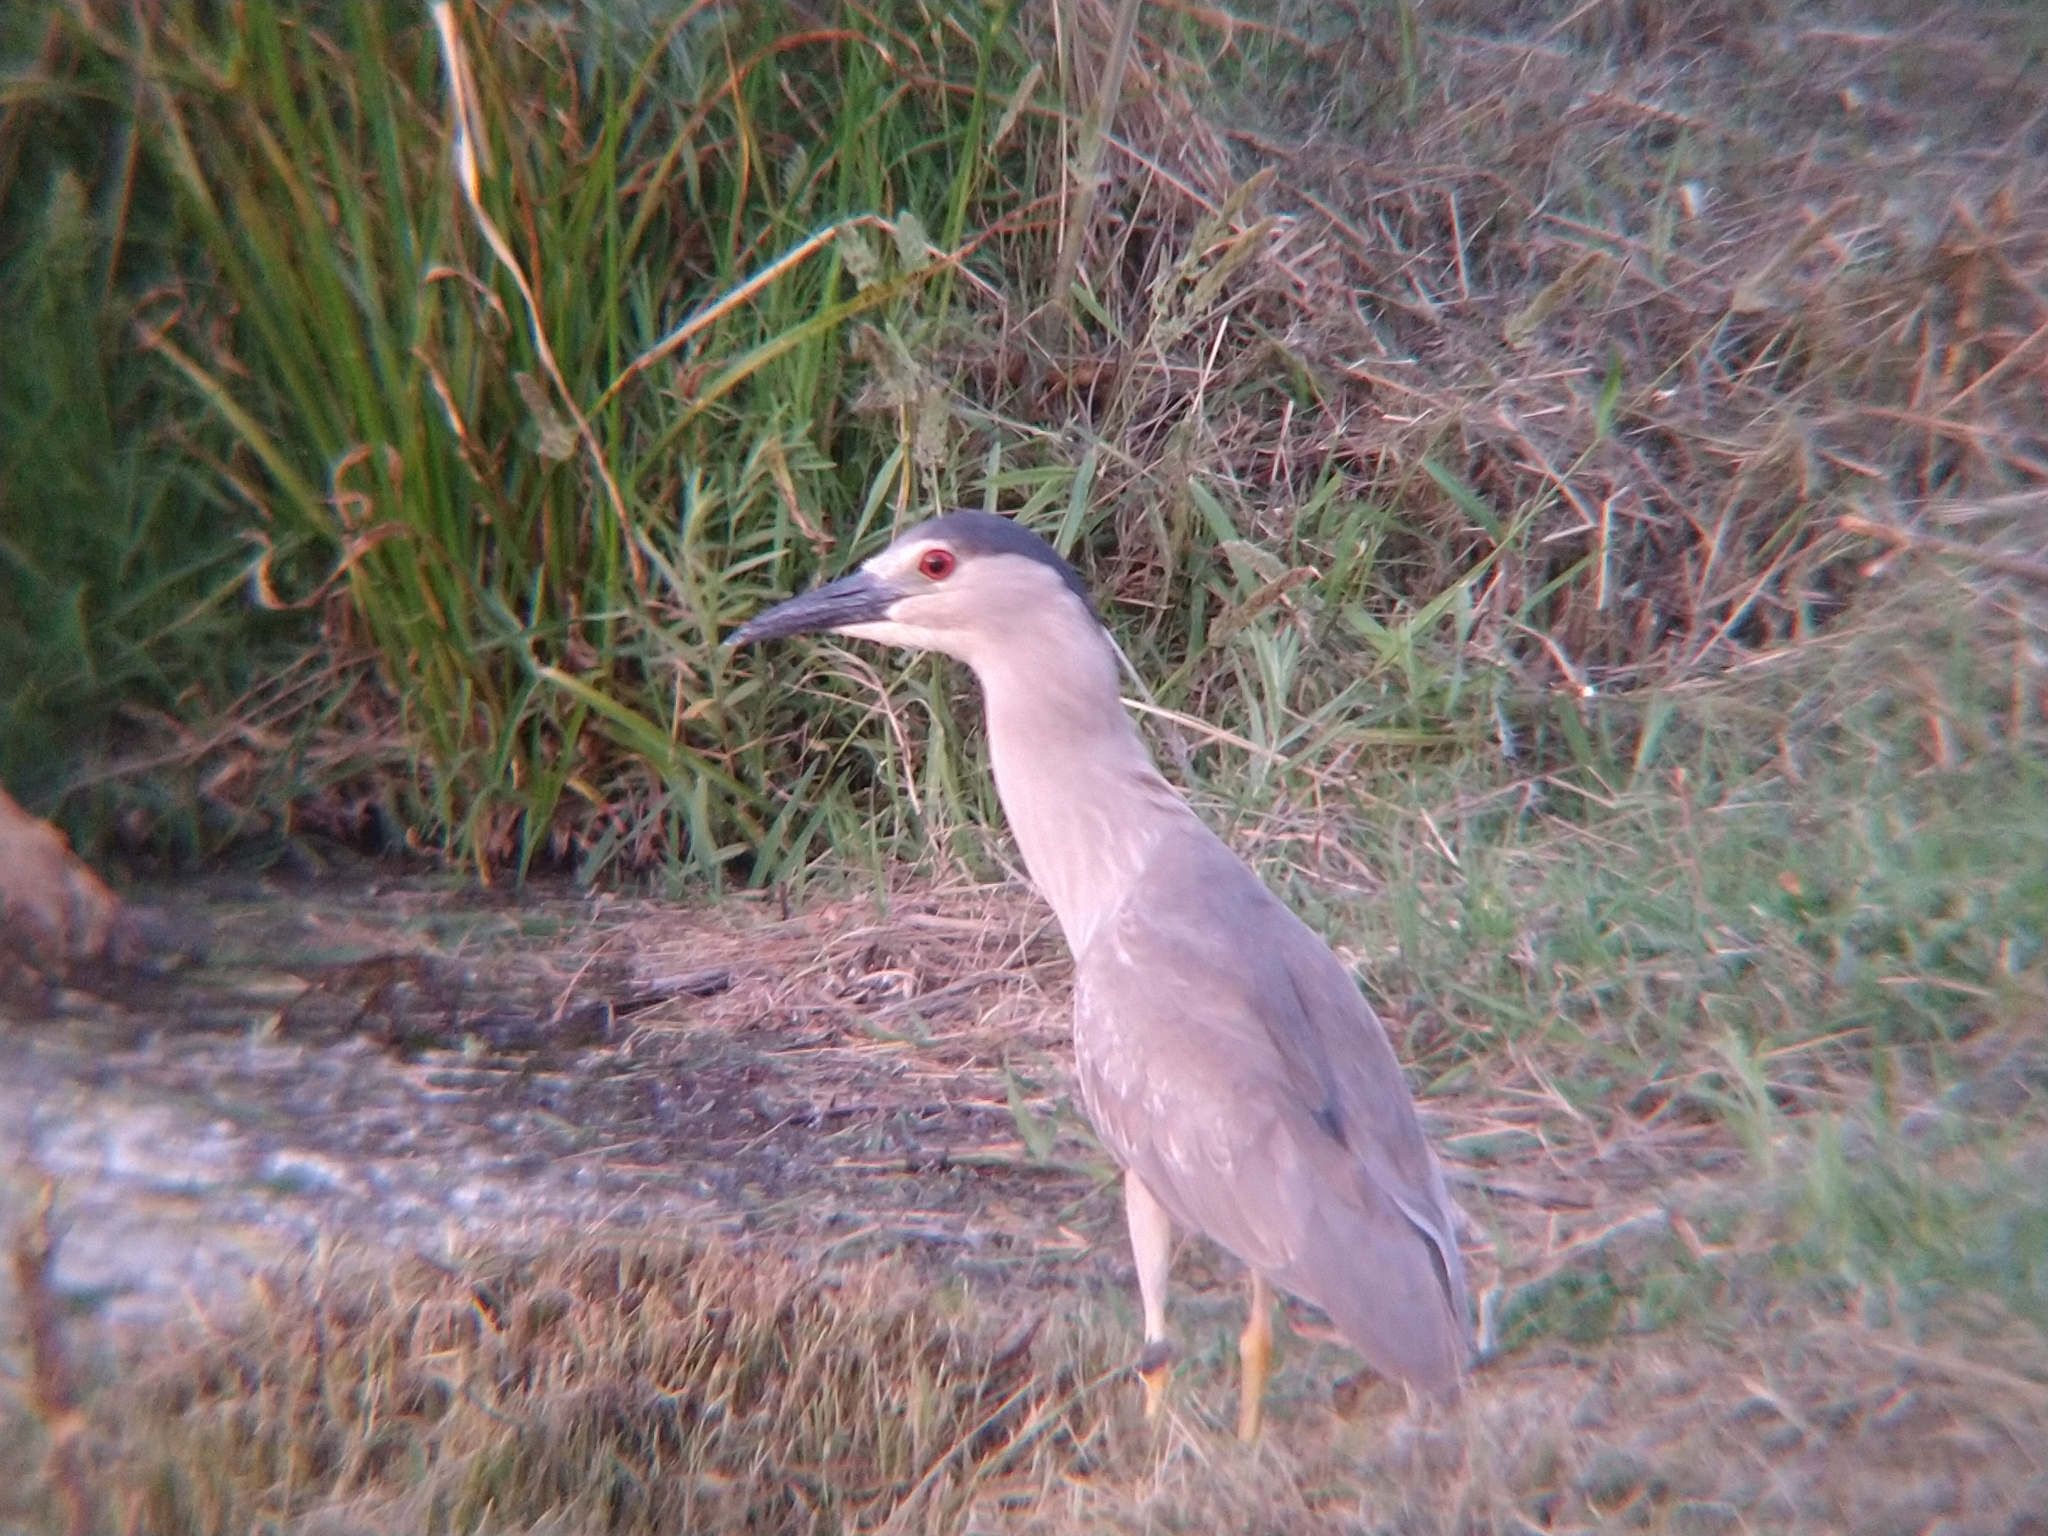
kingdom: Animalia
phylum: Chordata
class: Aves
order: Pelecaniformes
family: Ardeidae
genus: Nycticorax
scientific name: Nycticorax nycticorax
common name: Black-crowned night heron
